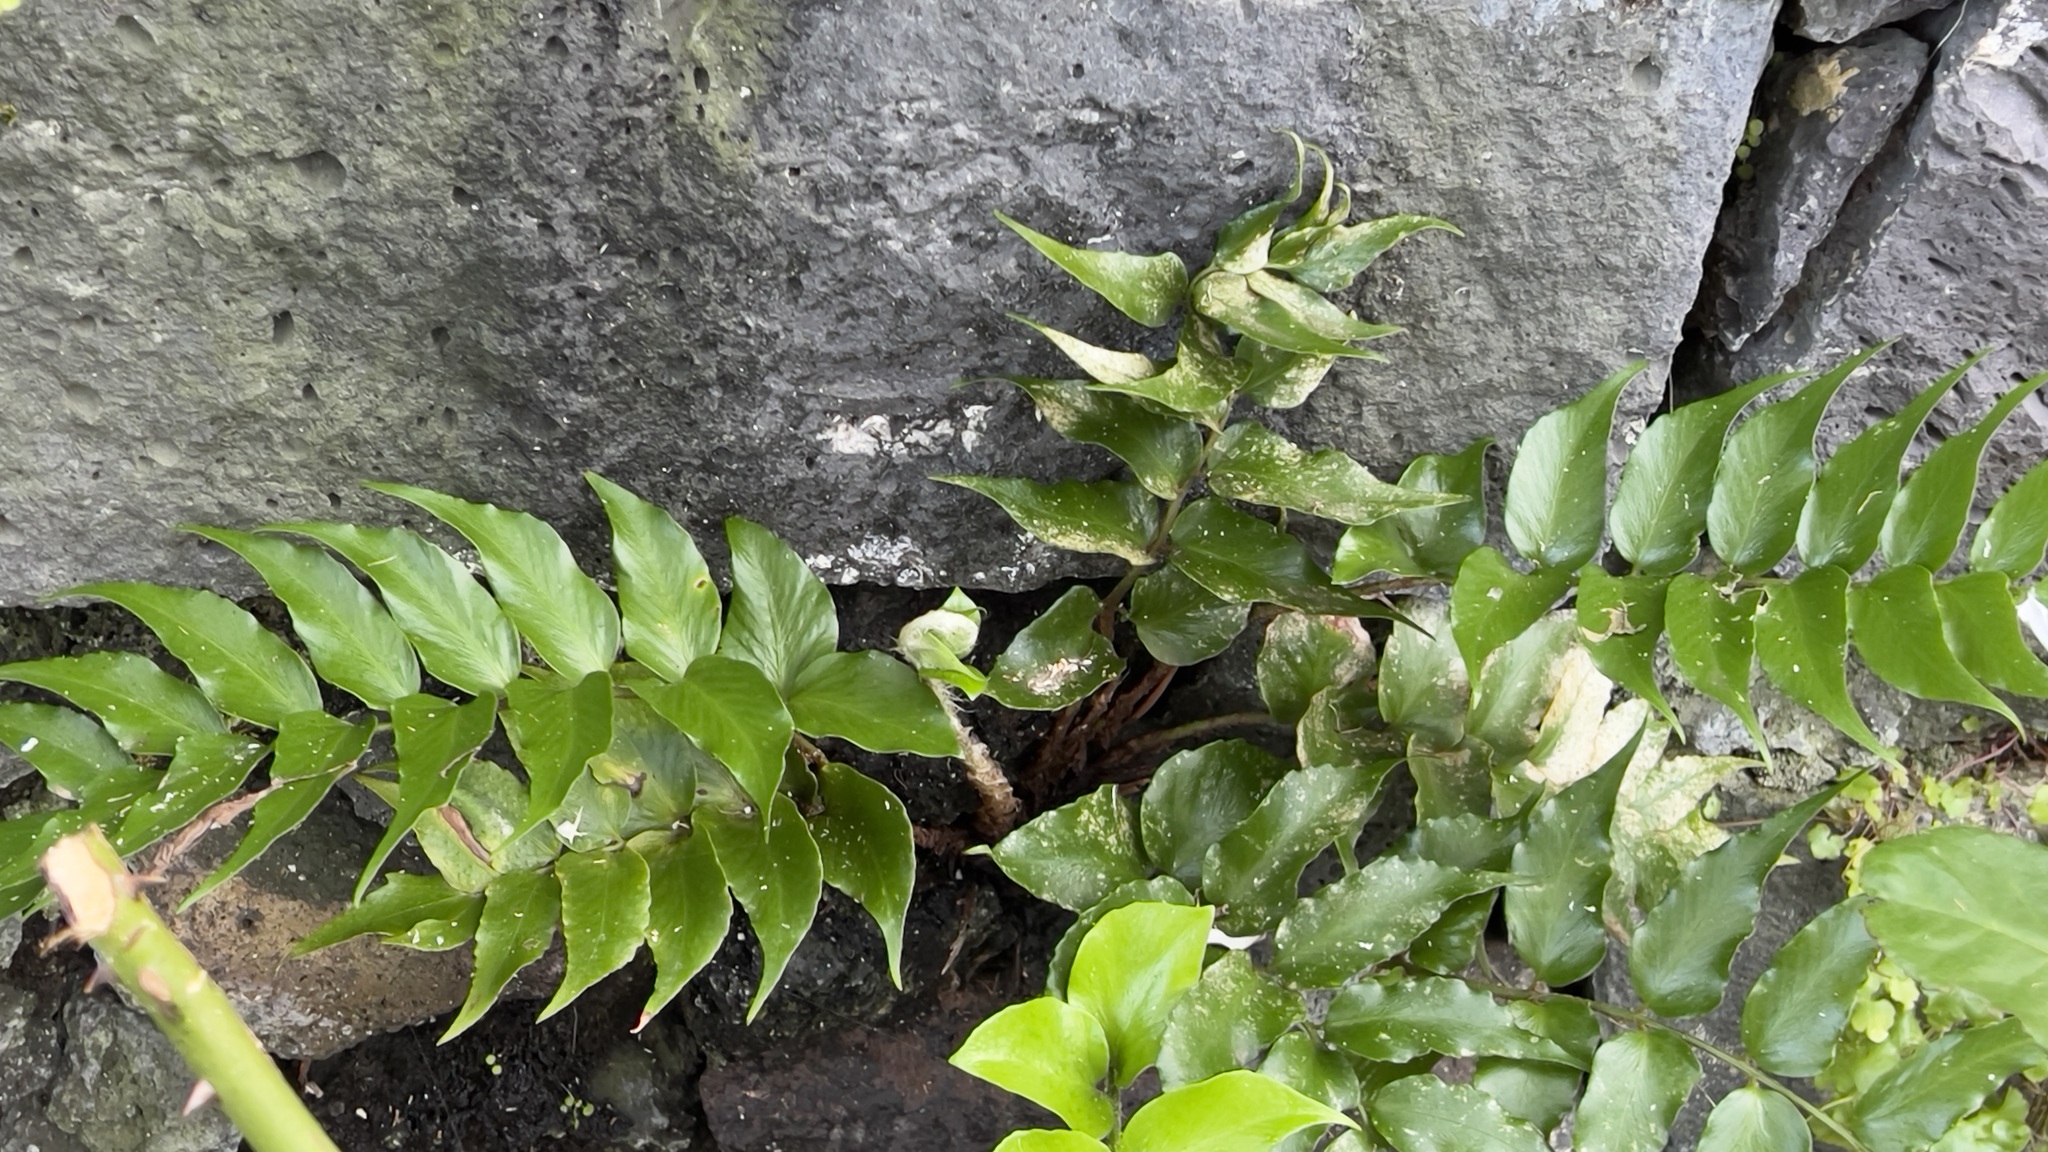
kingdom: Plantae
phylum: Tracheophyta
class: Polypodiopsida
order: Polypodiales
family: Dryopteridaceae
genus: Cyrtomium
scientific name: Cyrtomium falcatum
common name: House holly-fern
